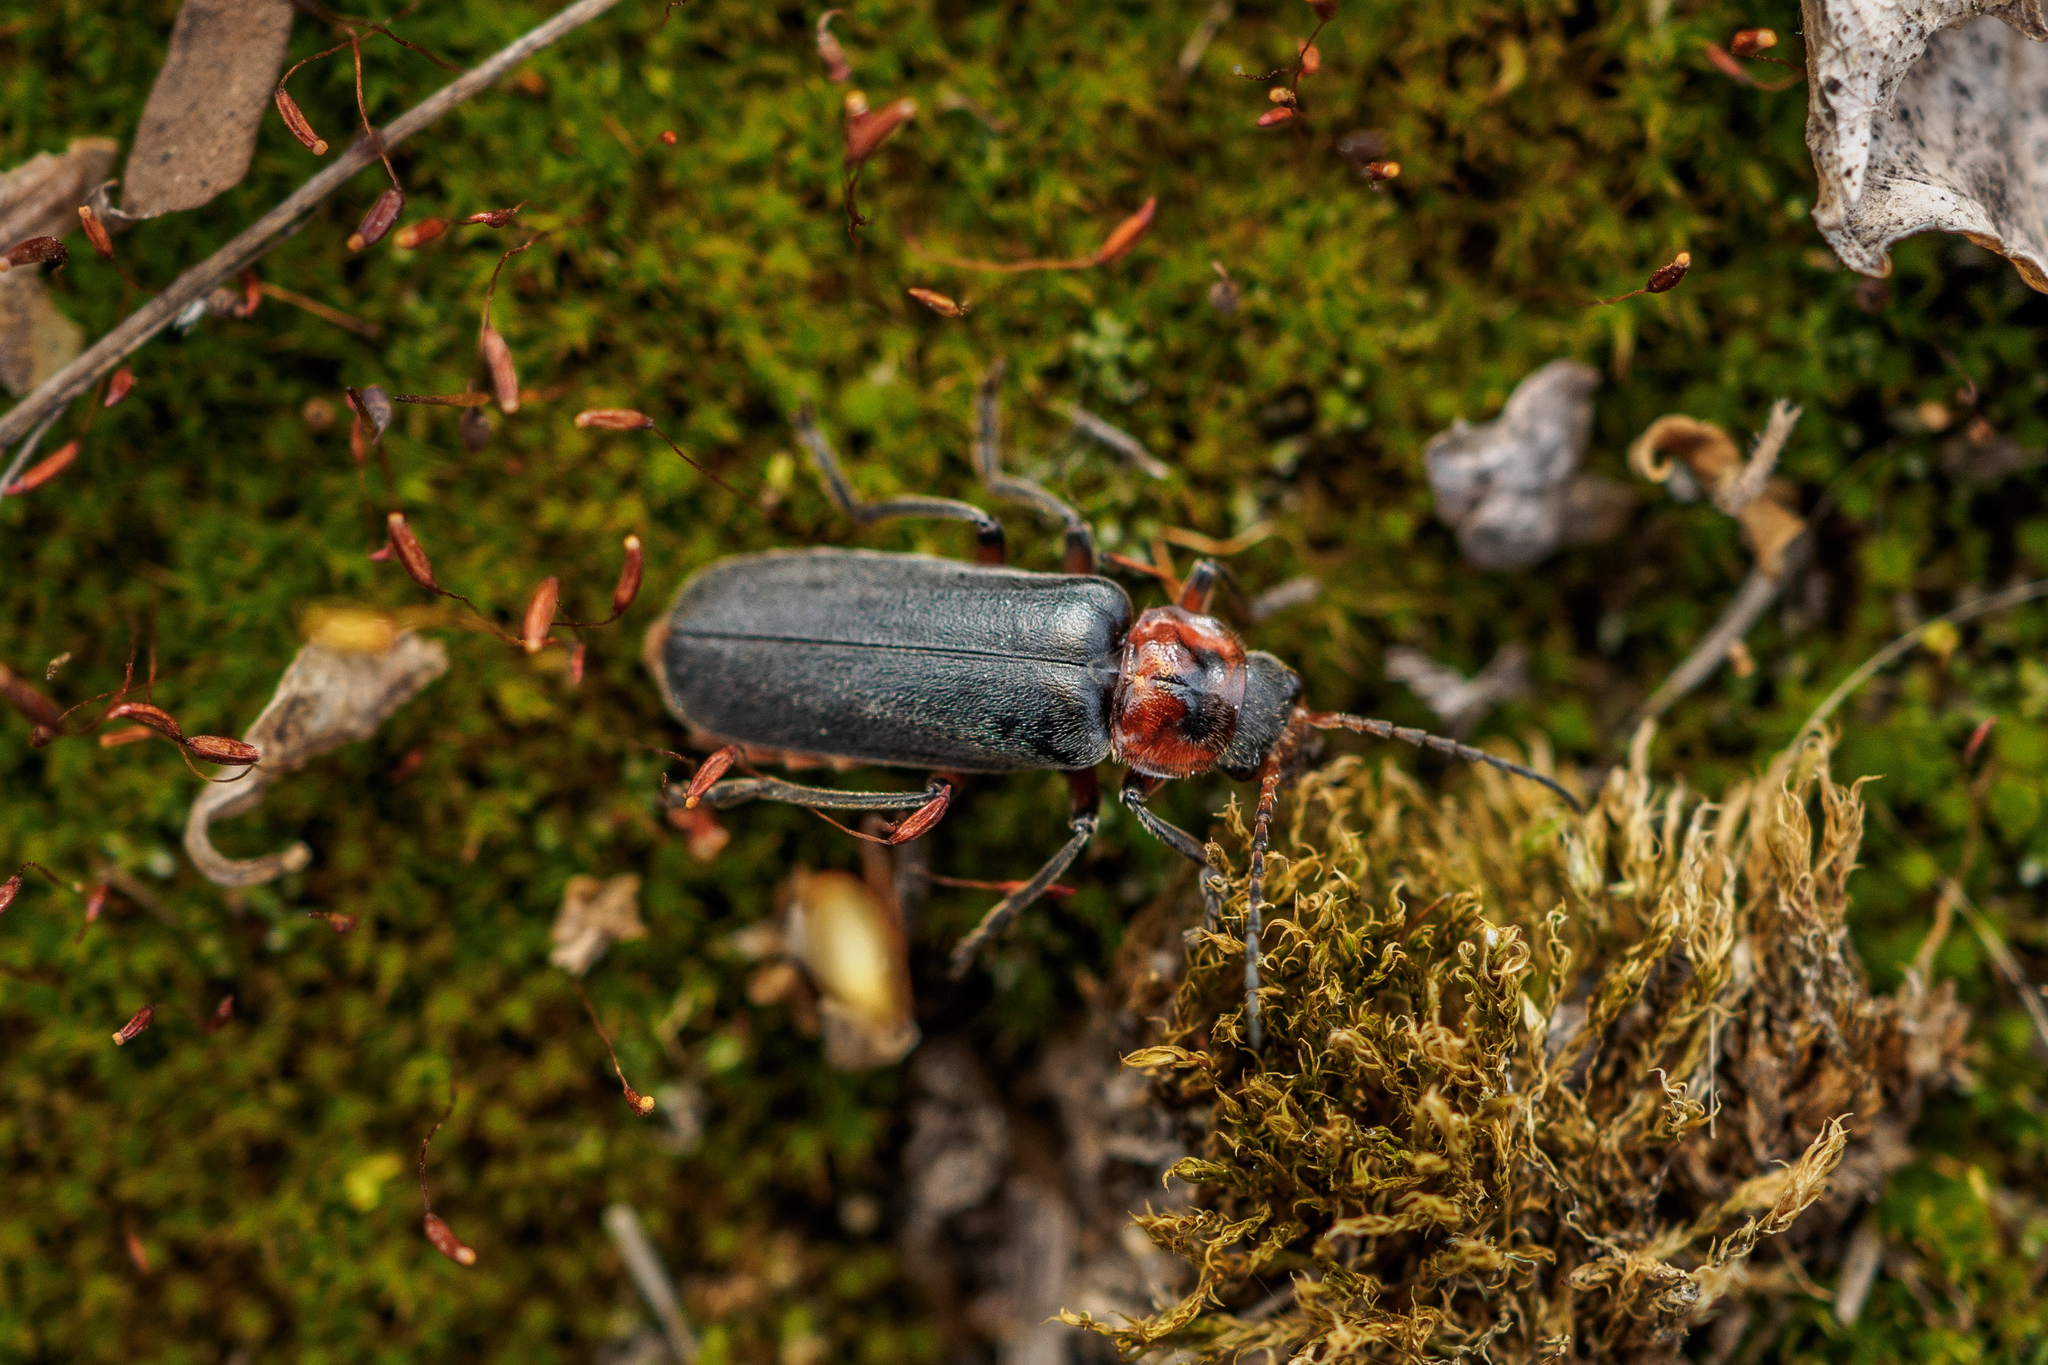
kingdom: Animalia
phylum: Arthropoda
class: Insecta
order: Coleoptera
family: Cantharidae
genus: Cantharis
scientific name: Cantharis rustica
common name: Soldier beetle
